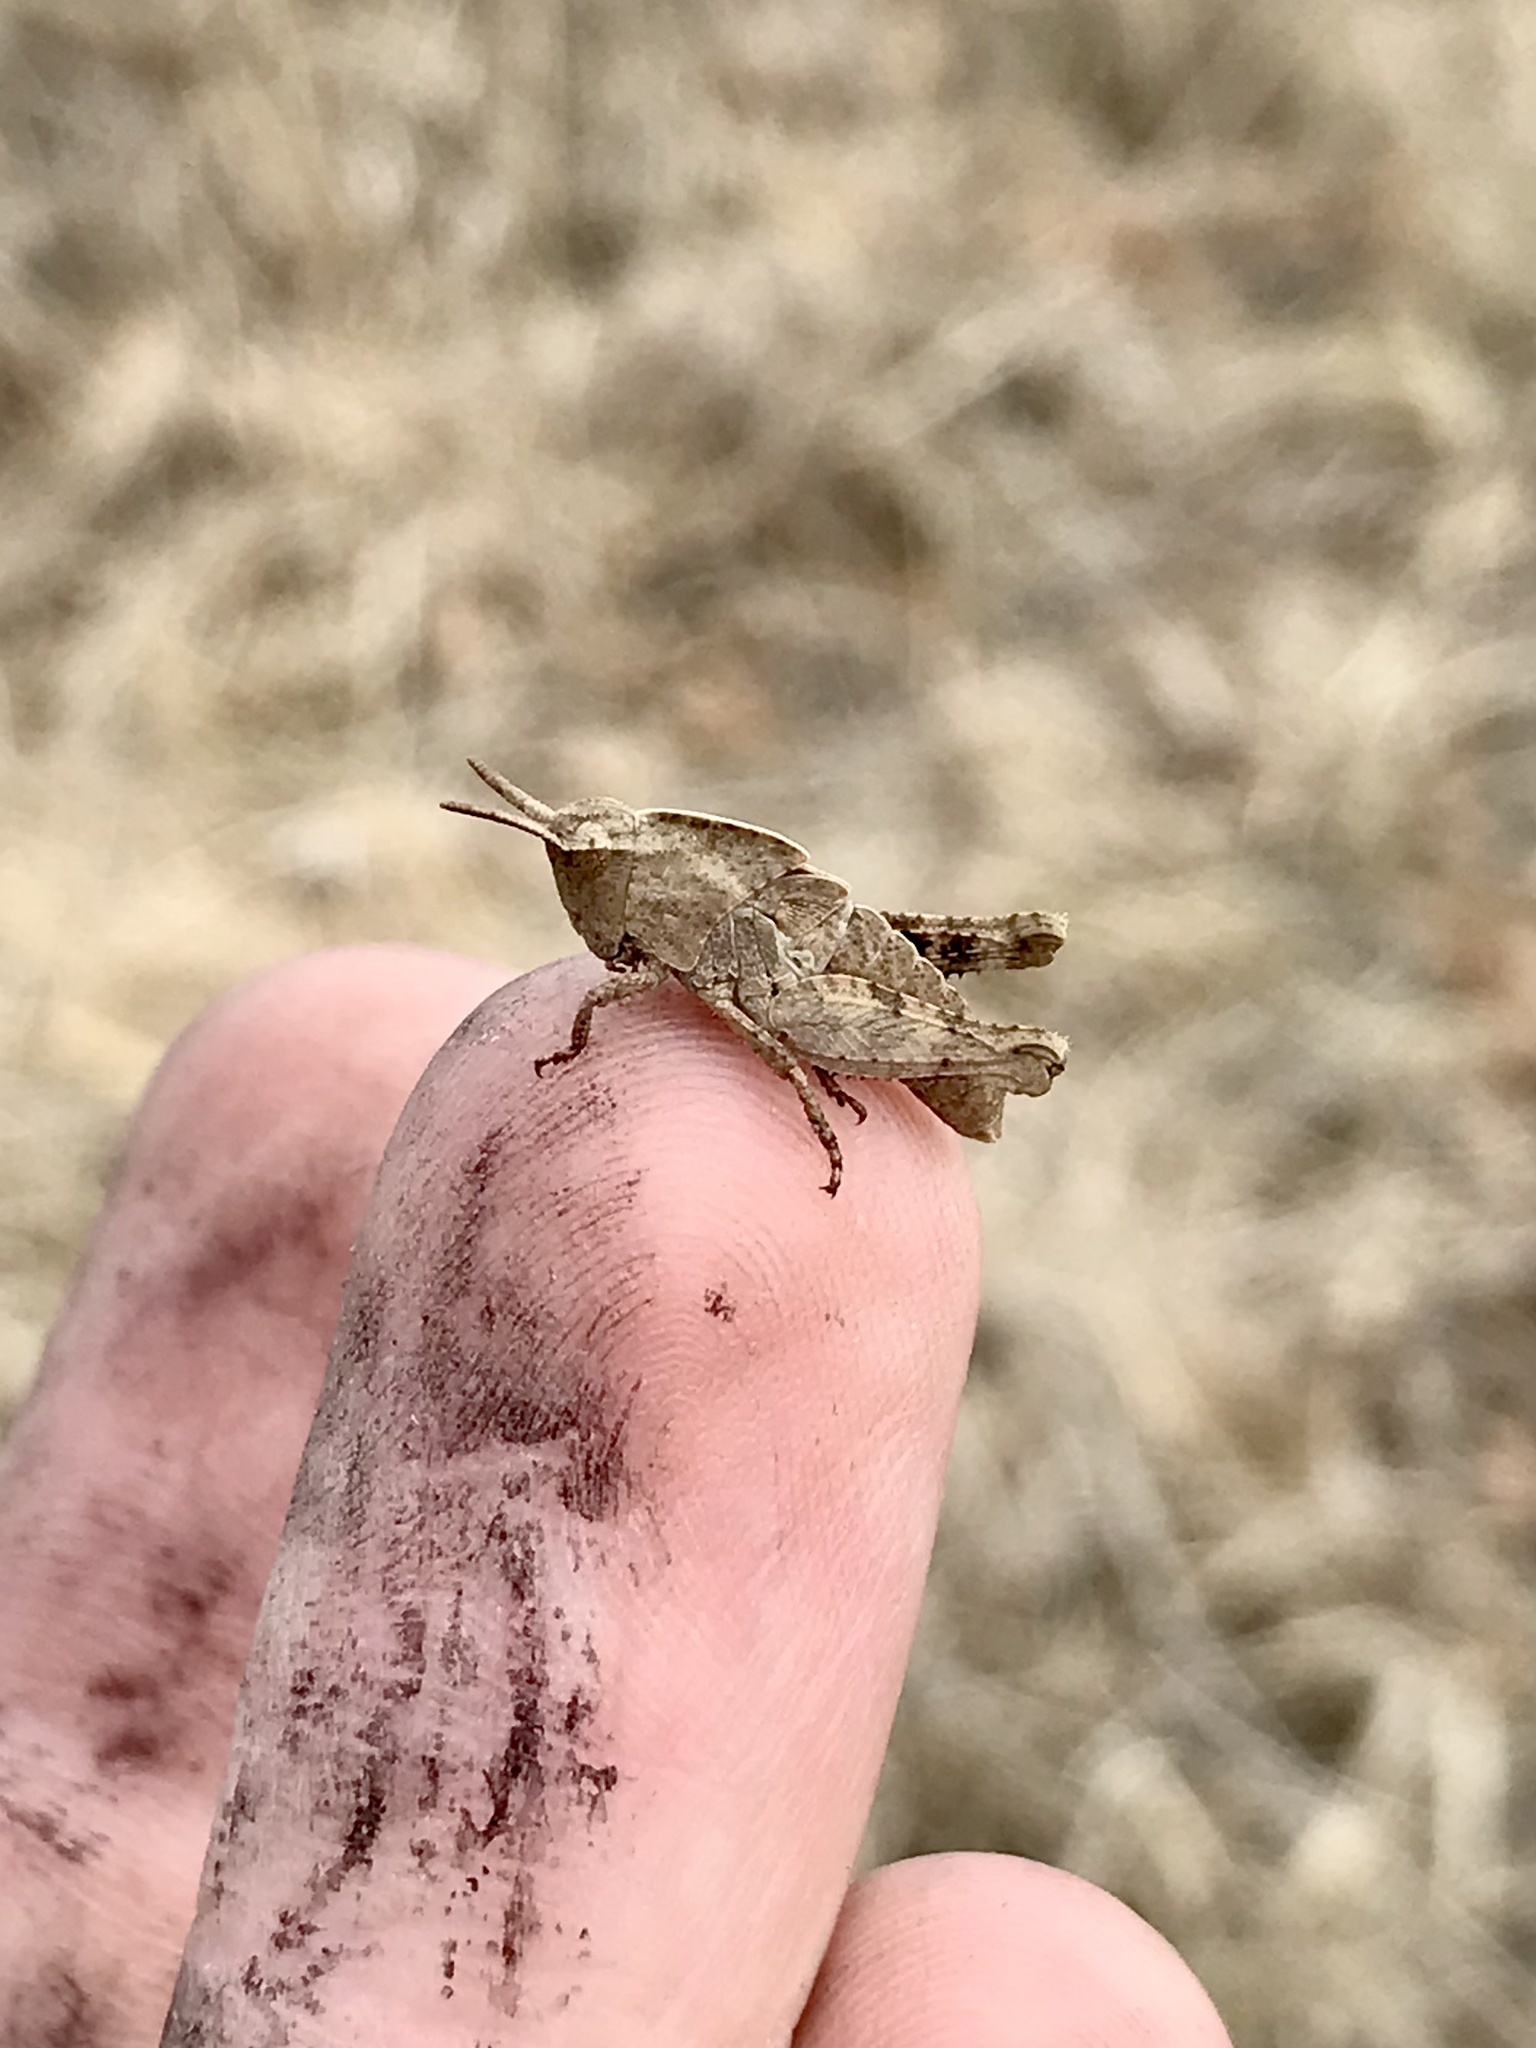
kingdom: Animalia
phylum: Arthropoda
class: Insecta
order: Orthoptera
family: Acrididae
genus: Chortophaga
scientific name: Chortophaga viridifasciata
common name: Green-striped grasshopper
